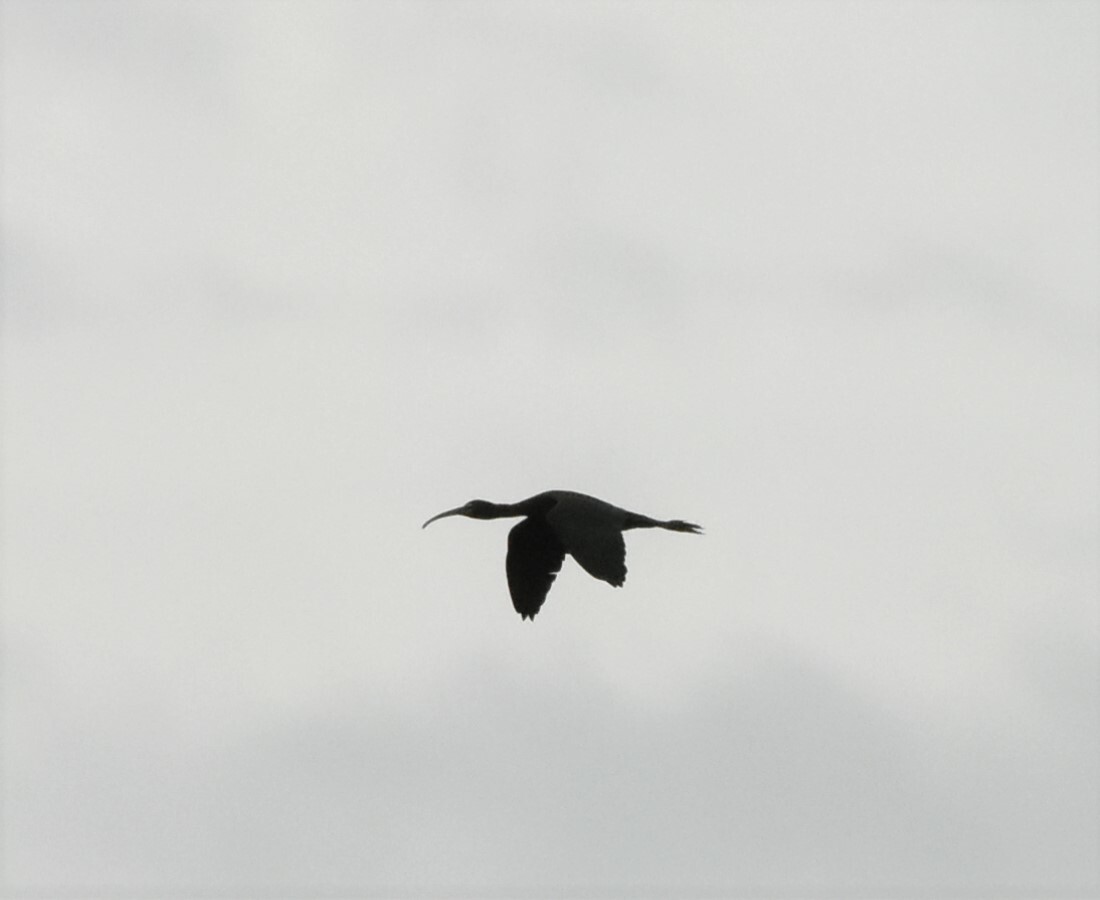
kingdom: Animalia
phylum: Chordata
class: Aves
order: Pelecaniformes
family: Threskiornithidae
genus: Plegadis
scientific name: Plegadis falcinellus
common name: Glossy ibis
